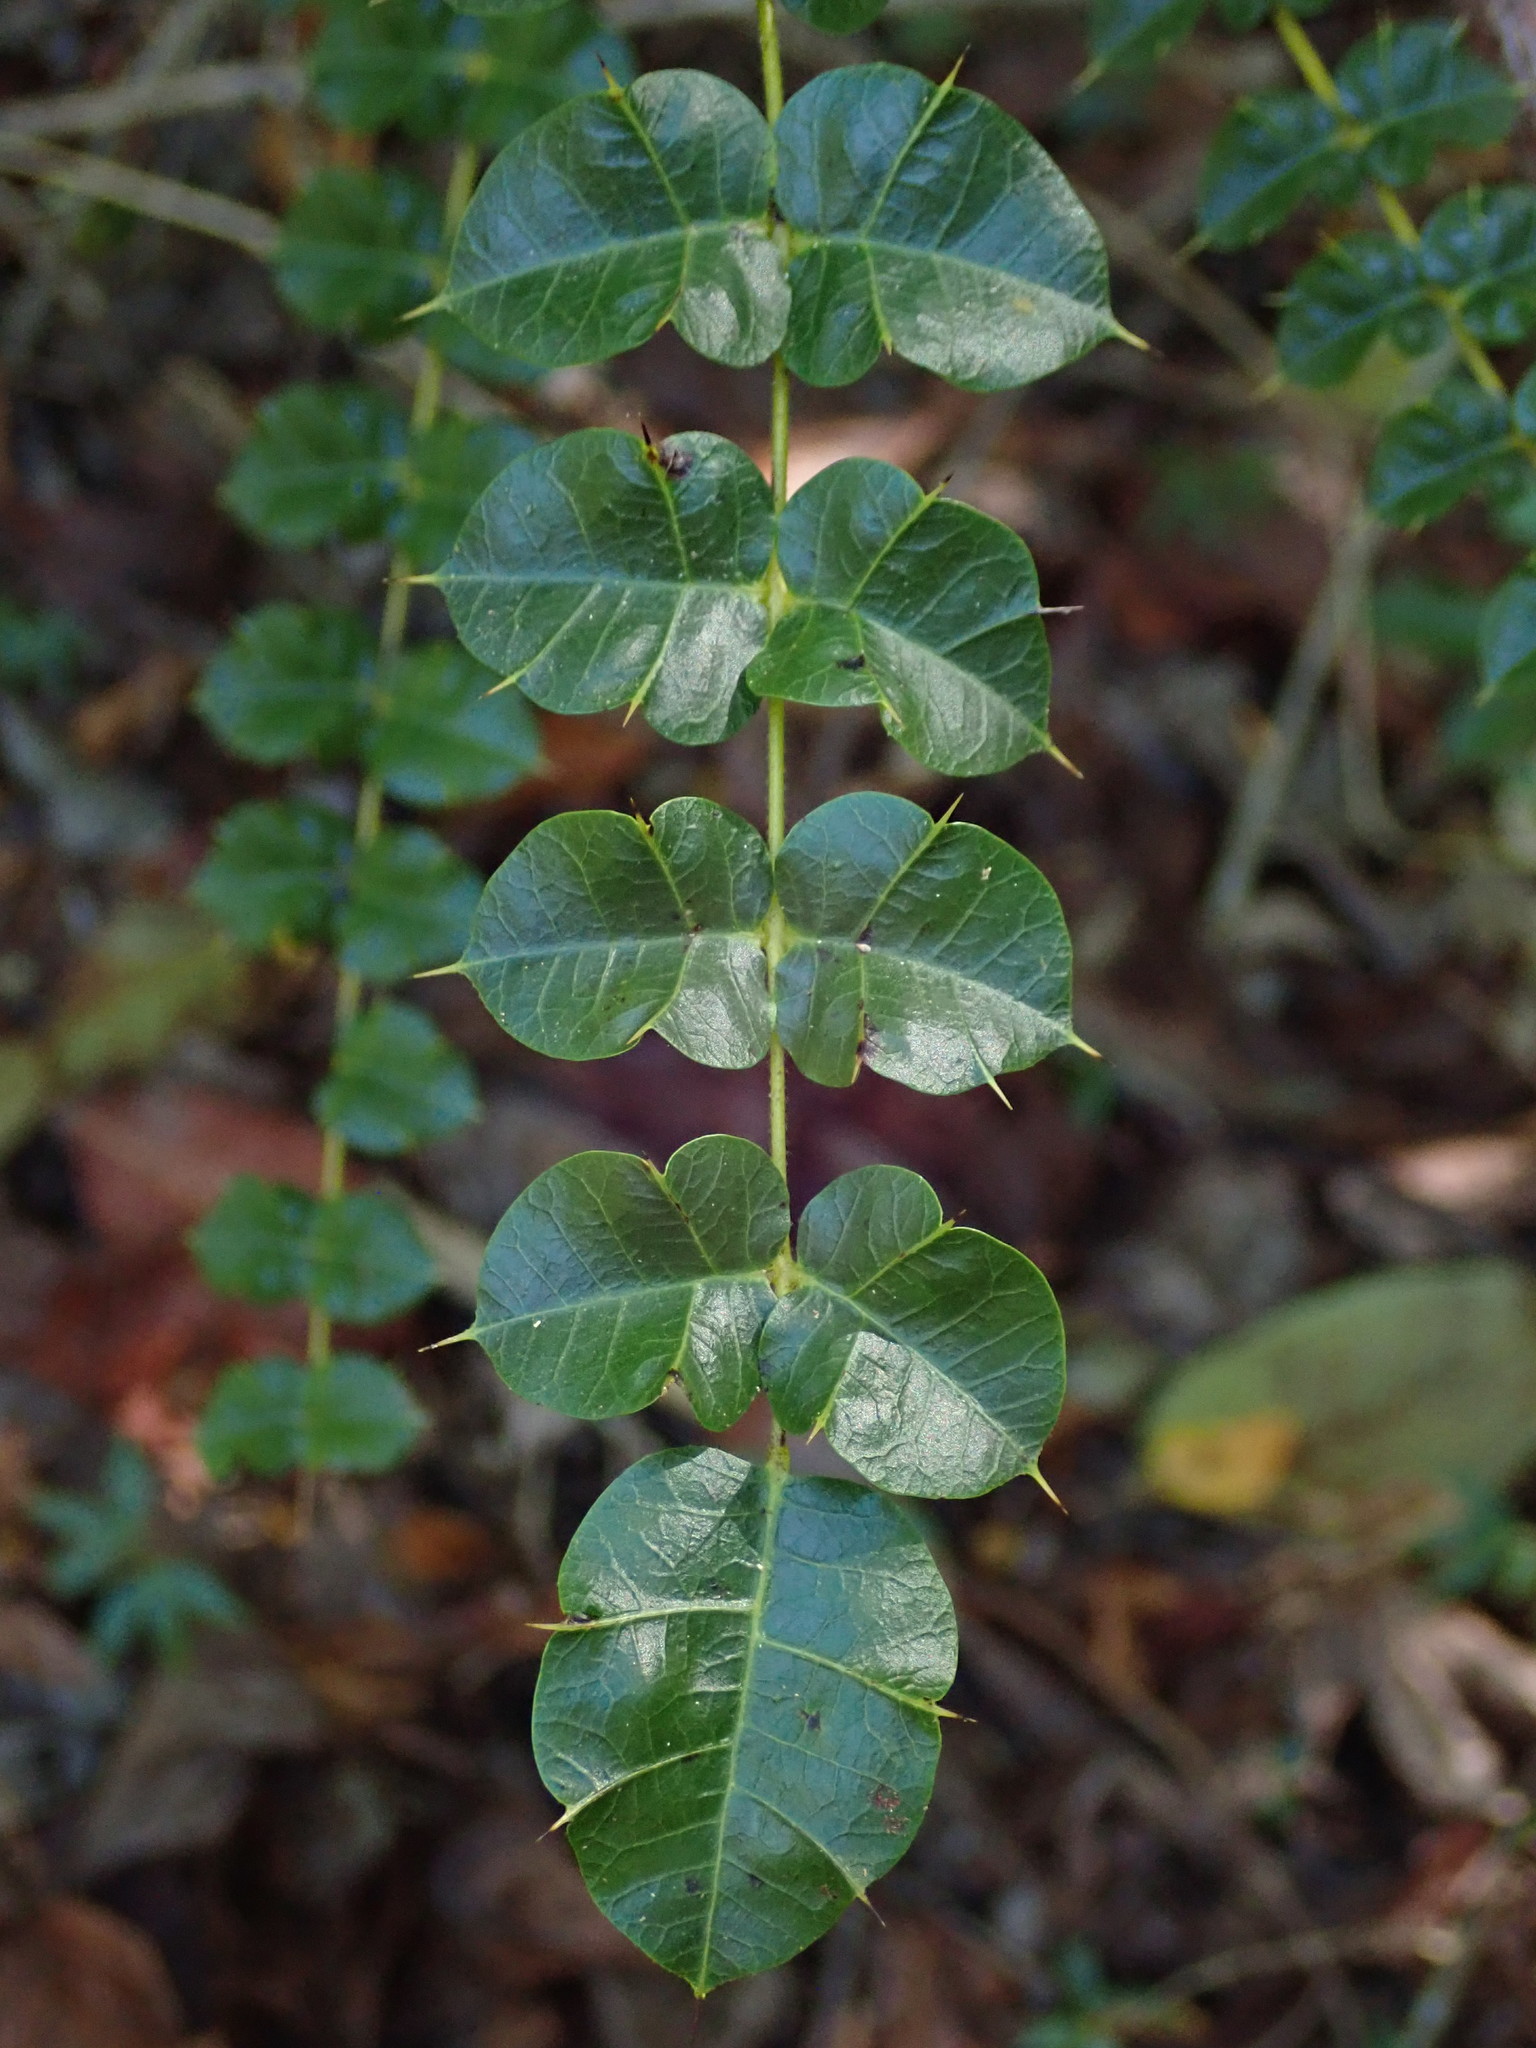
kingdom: Plantae
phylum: Tracheophyta
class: Magnoliopsida
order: Sapindales
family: Anacardiaceae
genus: Comocladia
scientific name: Comocladia dodonaea
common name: Poison ash
